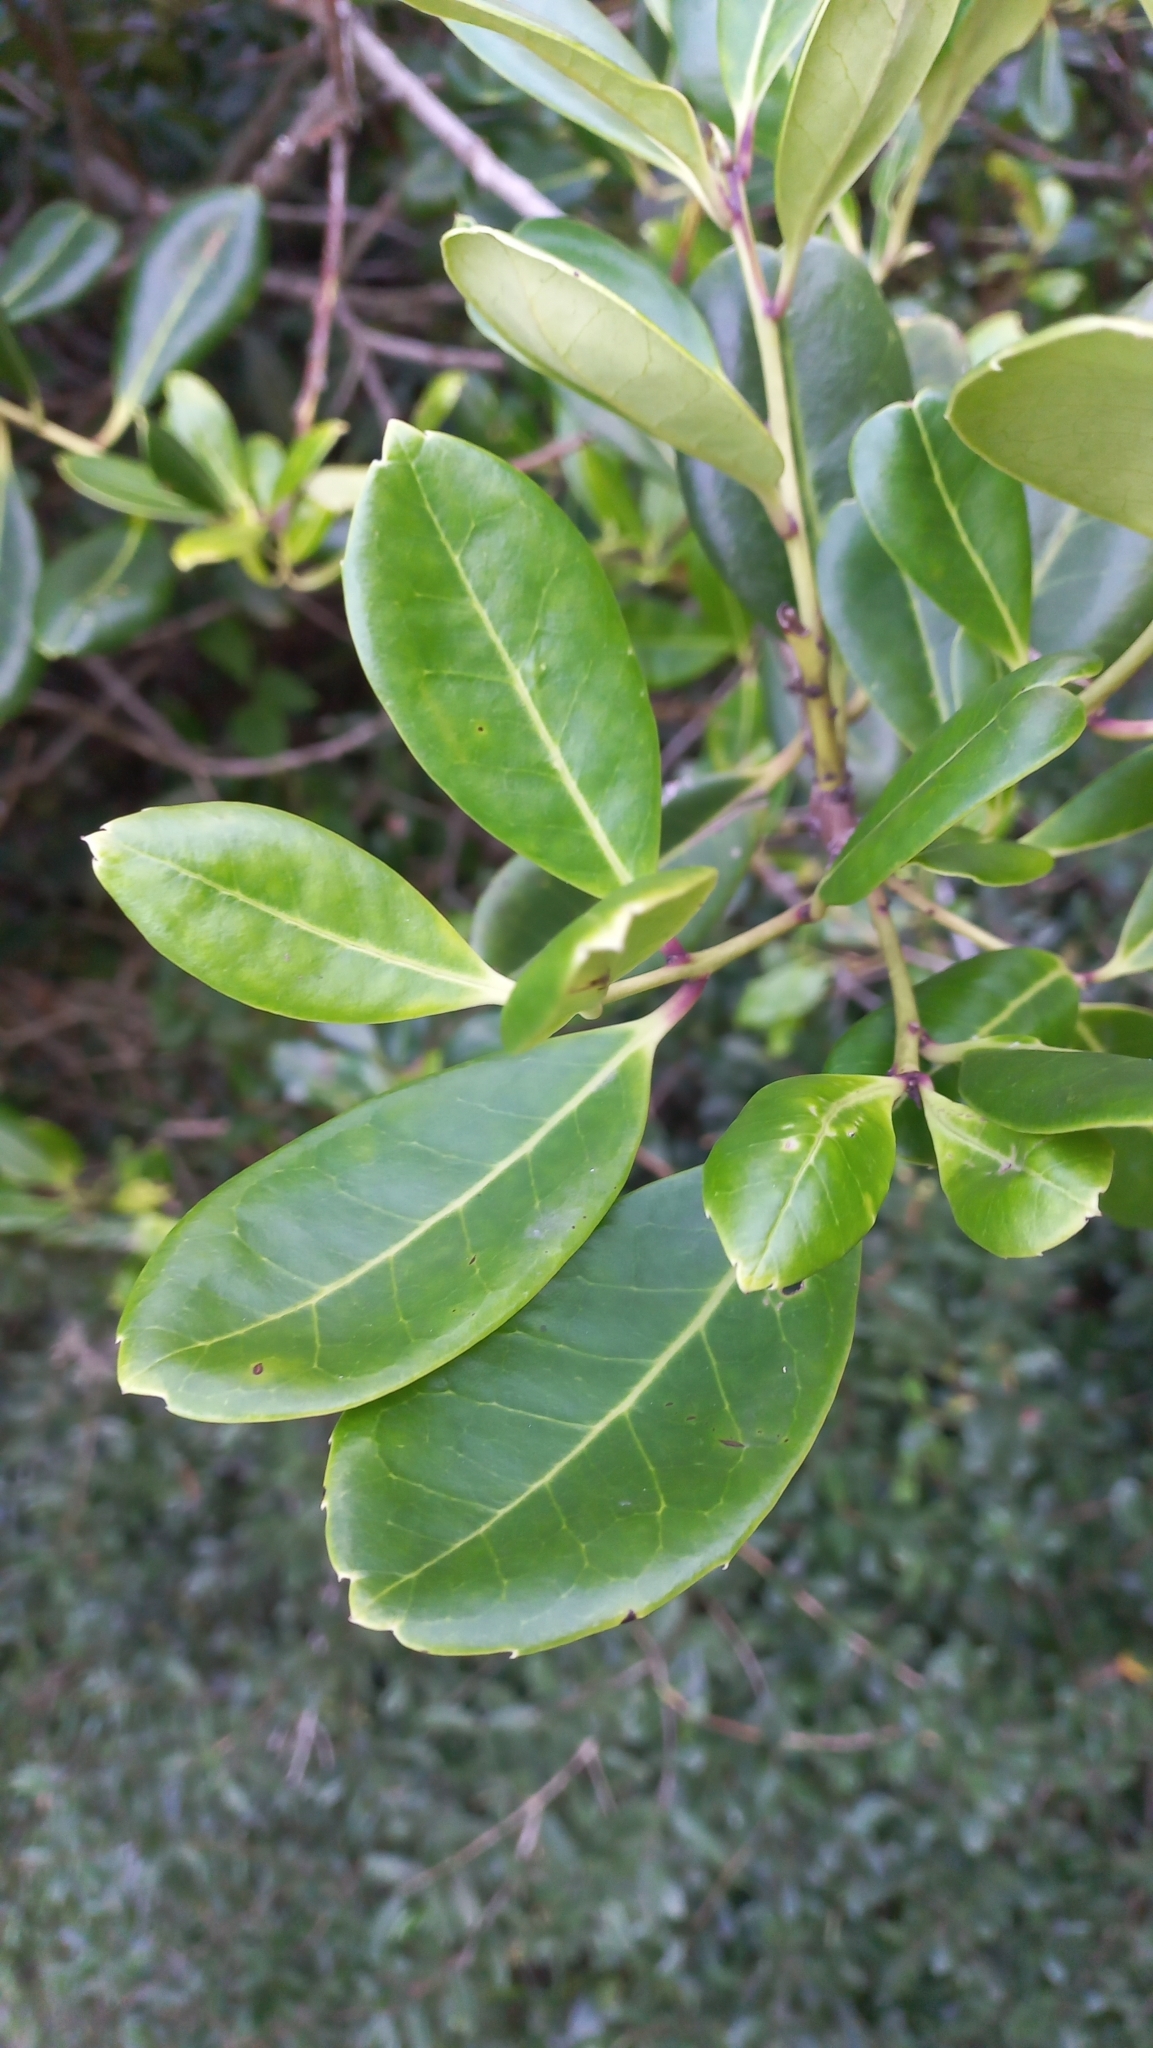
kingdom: Plantae
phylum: Tracheophyta
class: Magnoliopsida
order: Aquifoliales
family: Aquifoliaceae
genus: Ilex
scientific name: Ilex theezans
